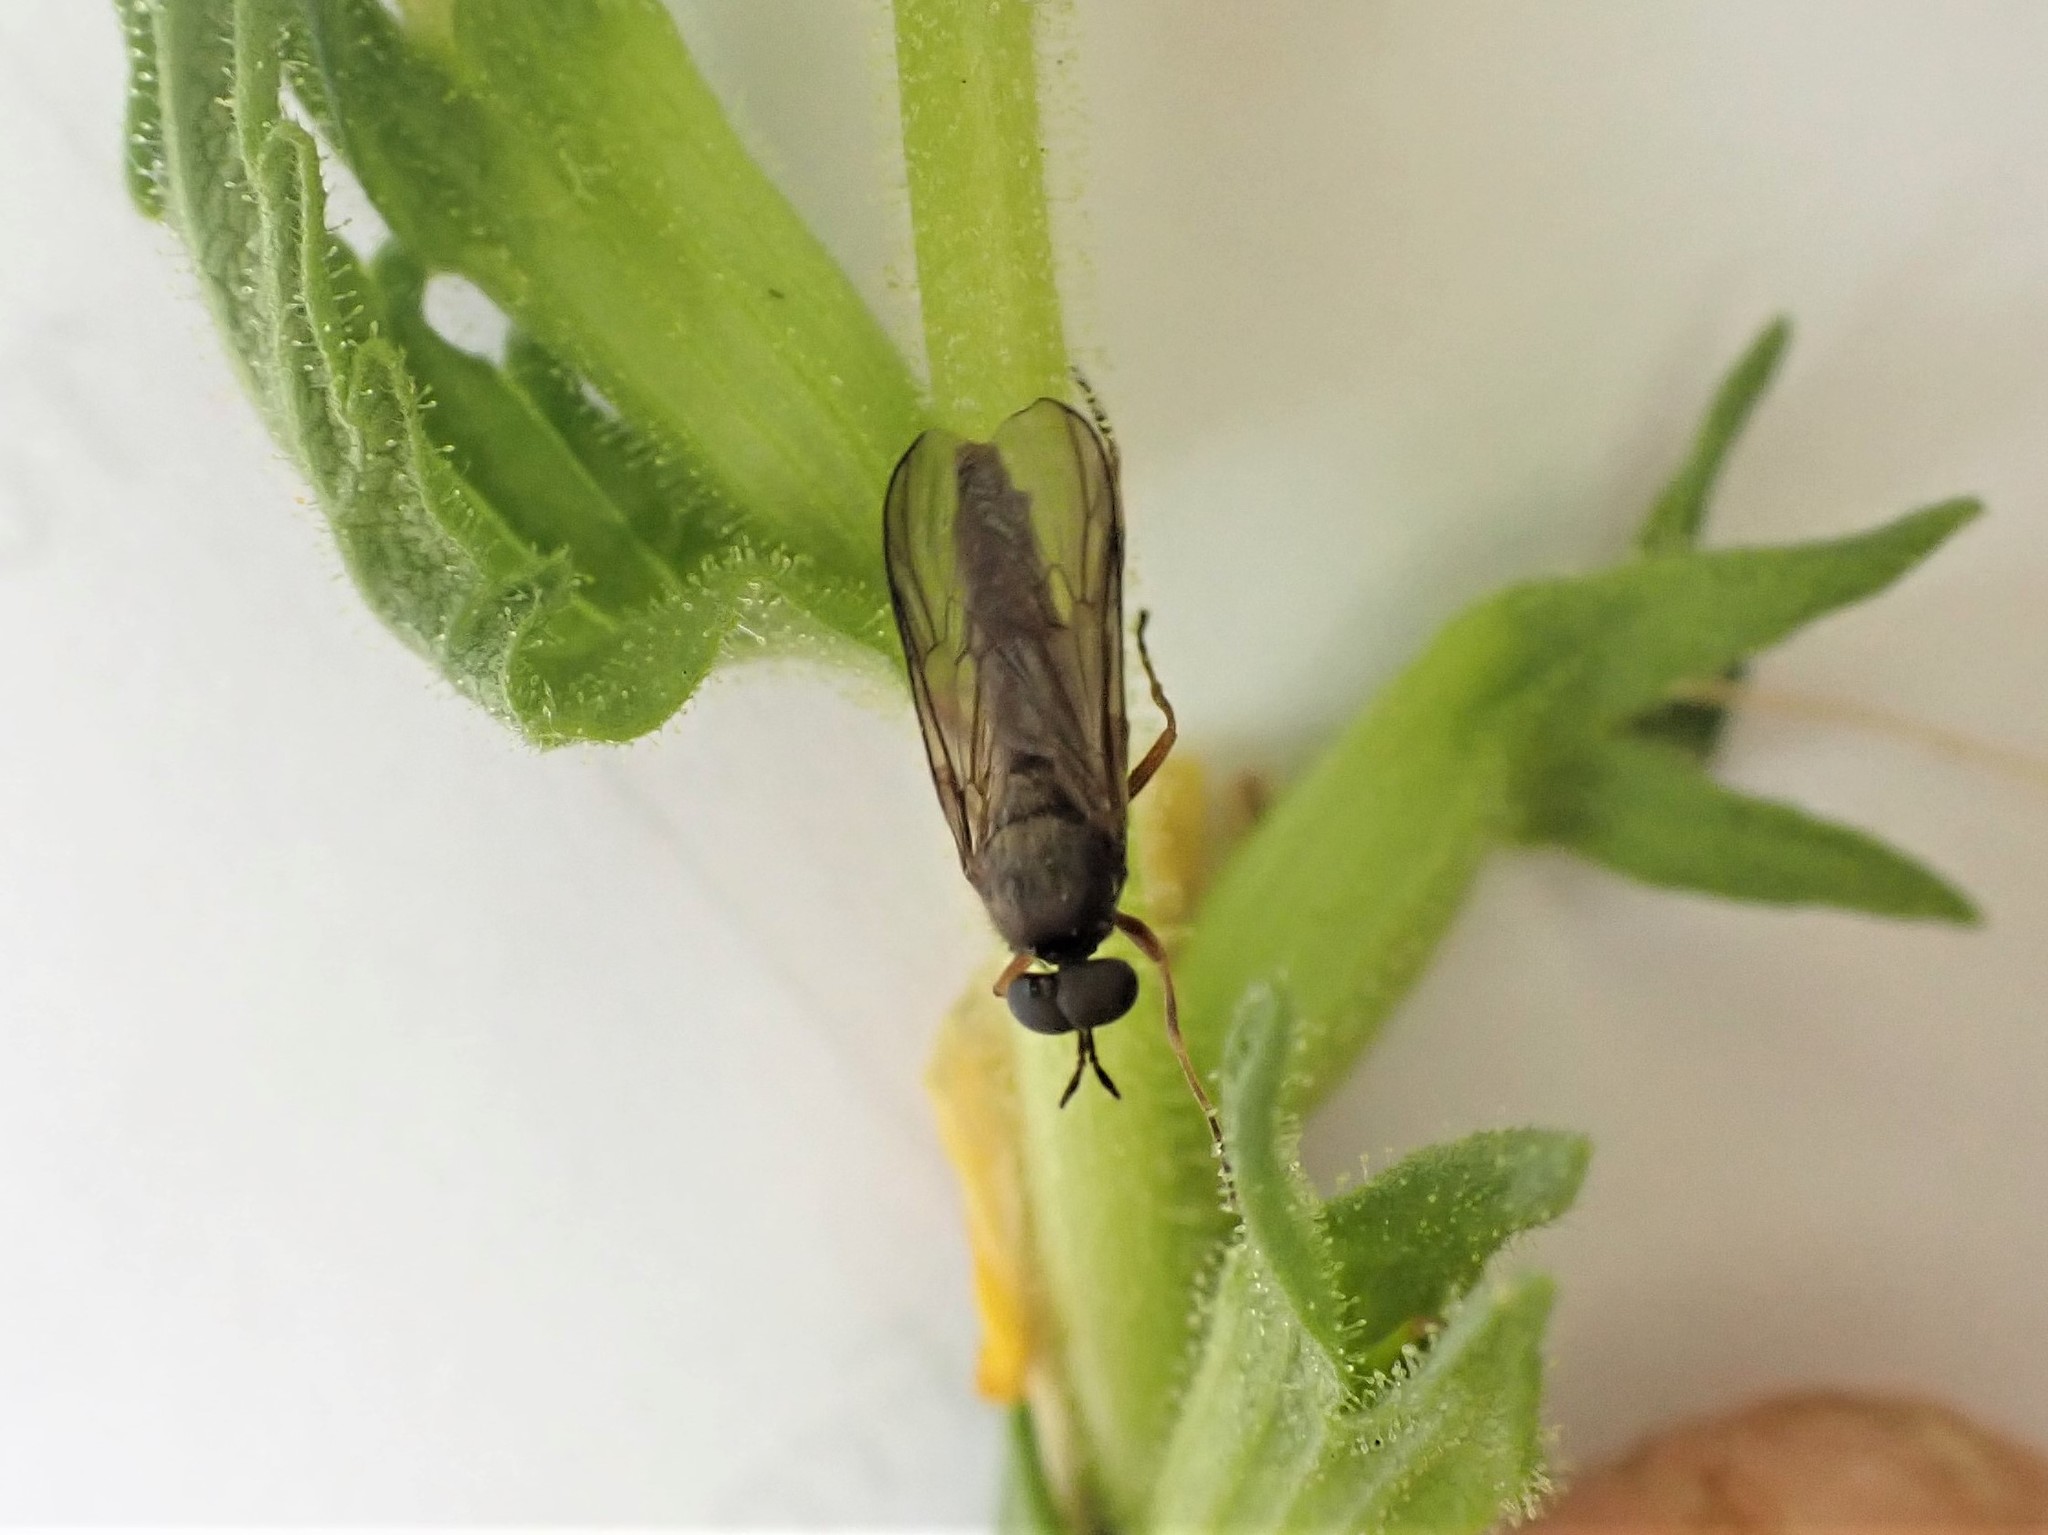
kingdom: Animalia
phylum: Arthropoda
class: Insecta
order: Diptera
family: Stratiomyidae
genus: Inopus
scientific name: Inopus rubriceps
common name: Soldier fly
